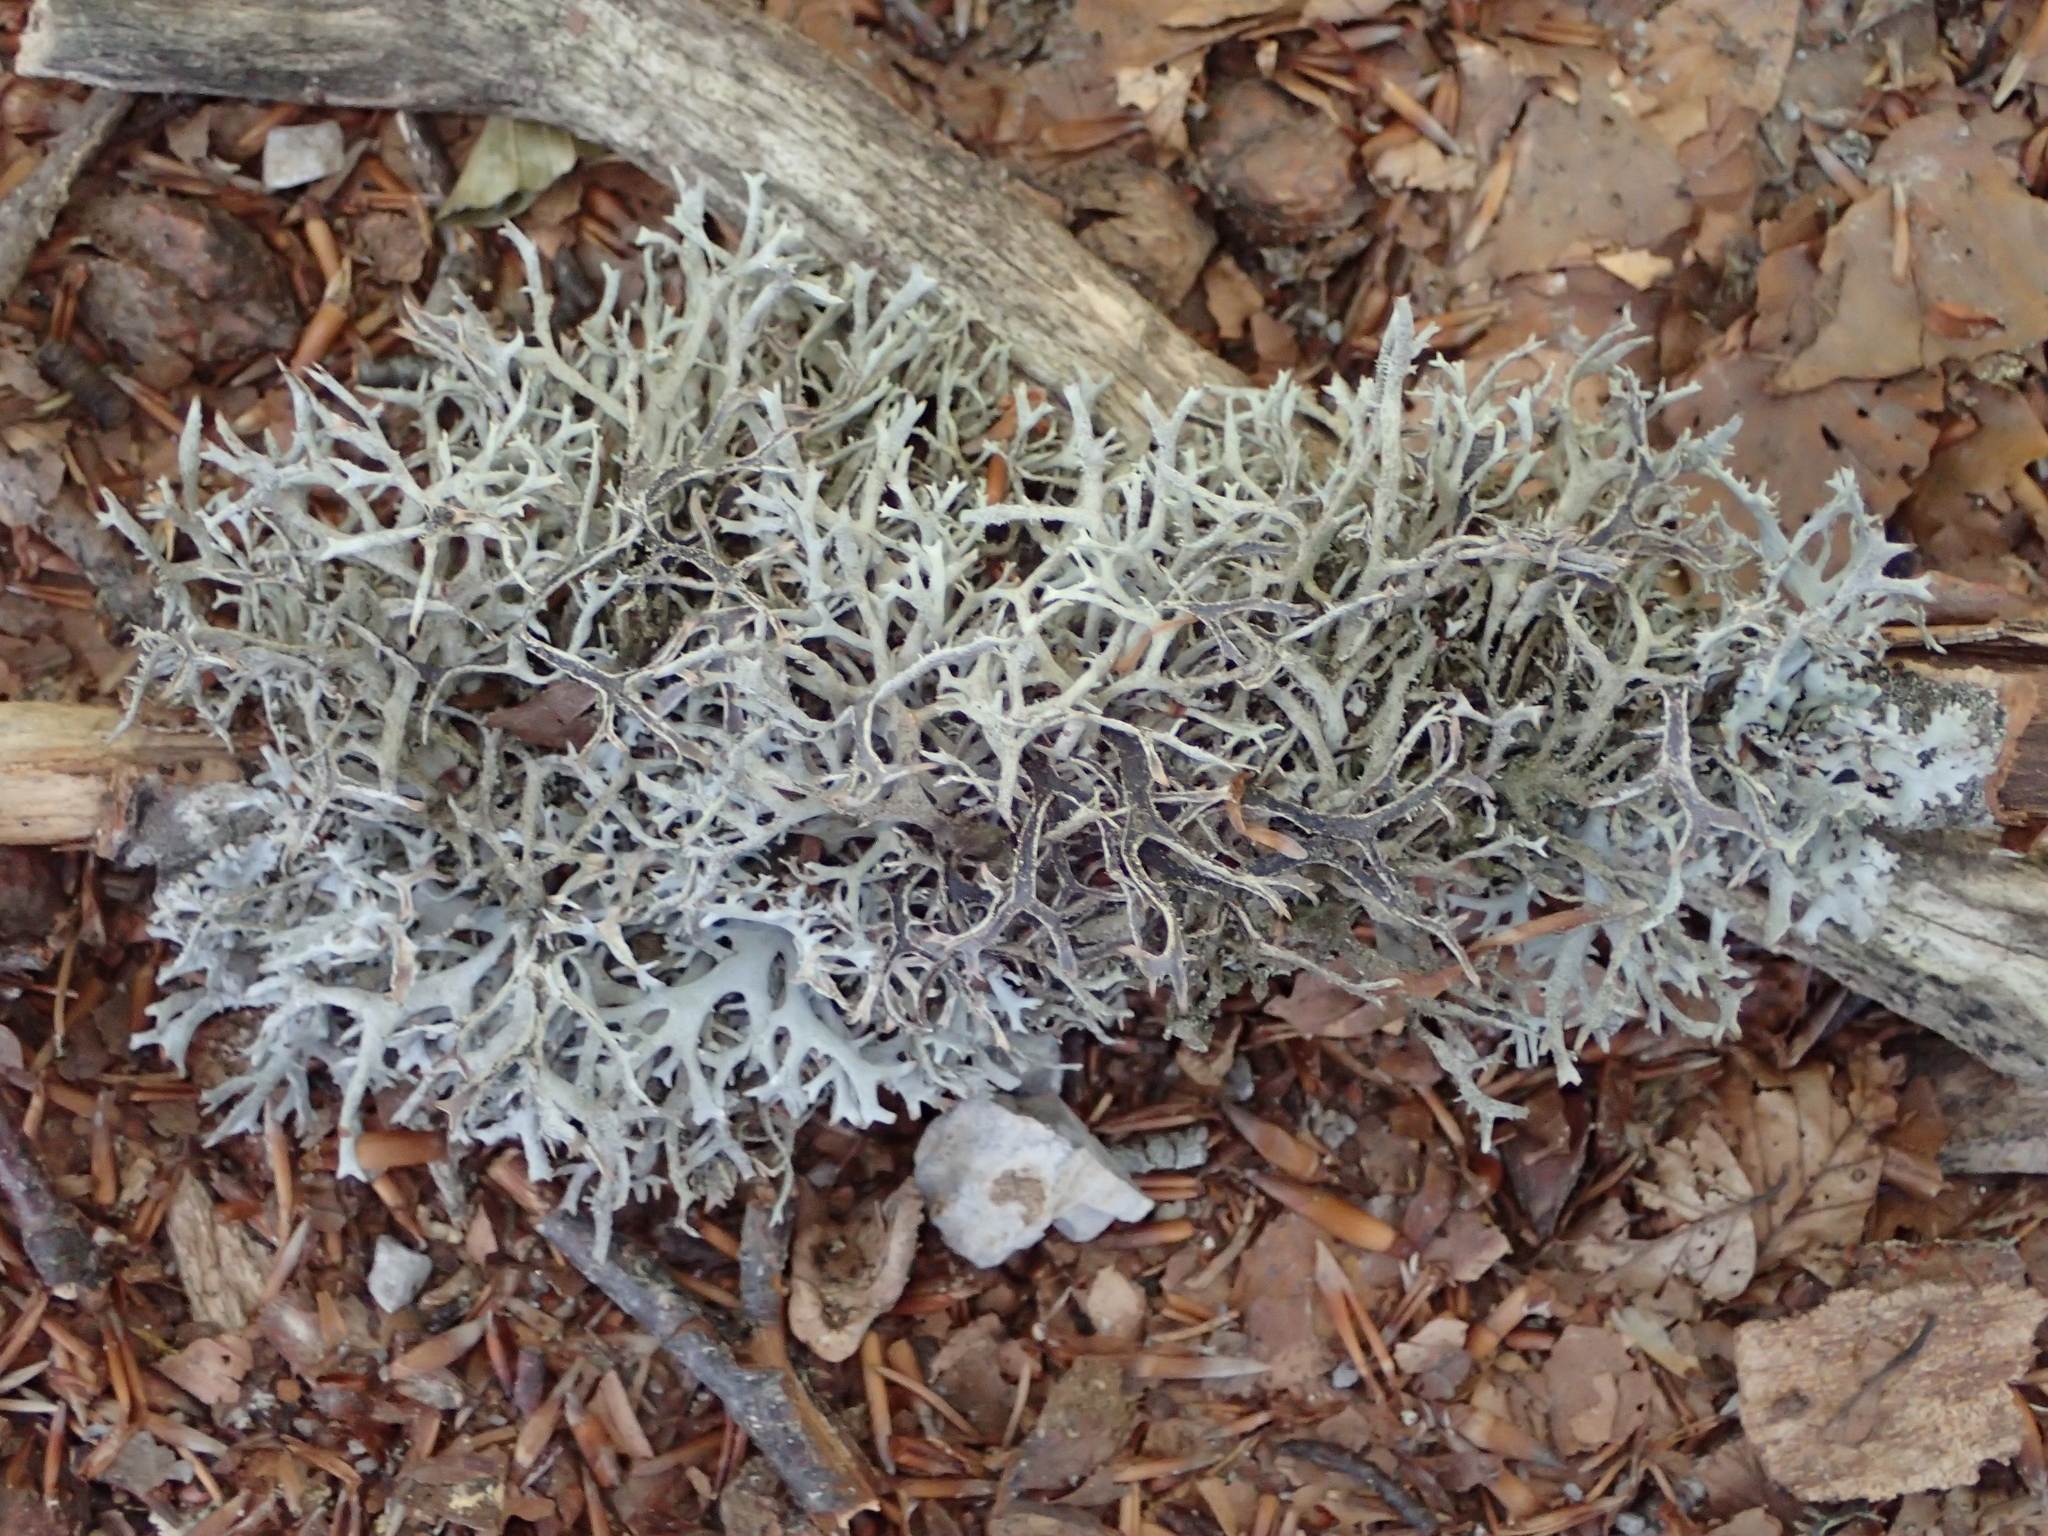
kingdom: Fungi
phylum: Ascomycota
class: Lecanoromycetes
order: Lecanorales
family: Parmeliaceae
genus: Pseudevernia
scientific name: Pseudevernia furfuracea
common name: Tree moss
